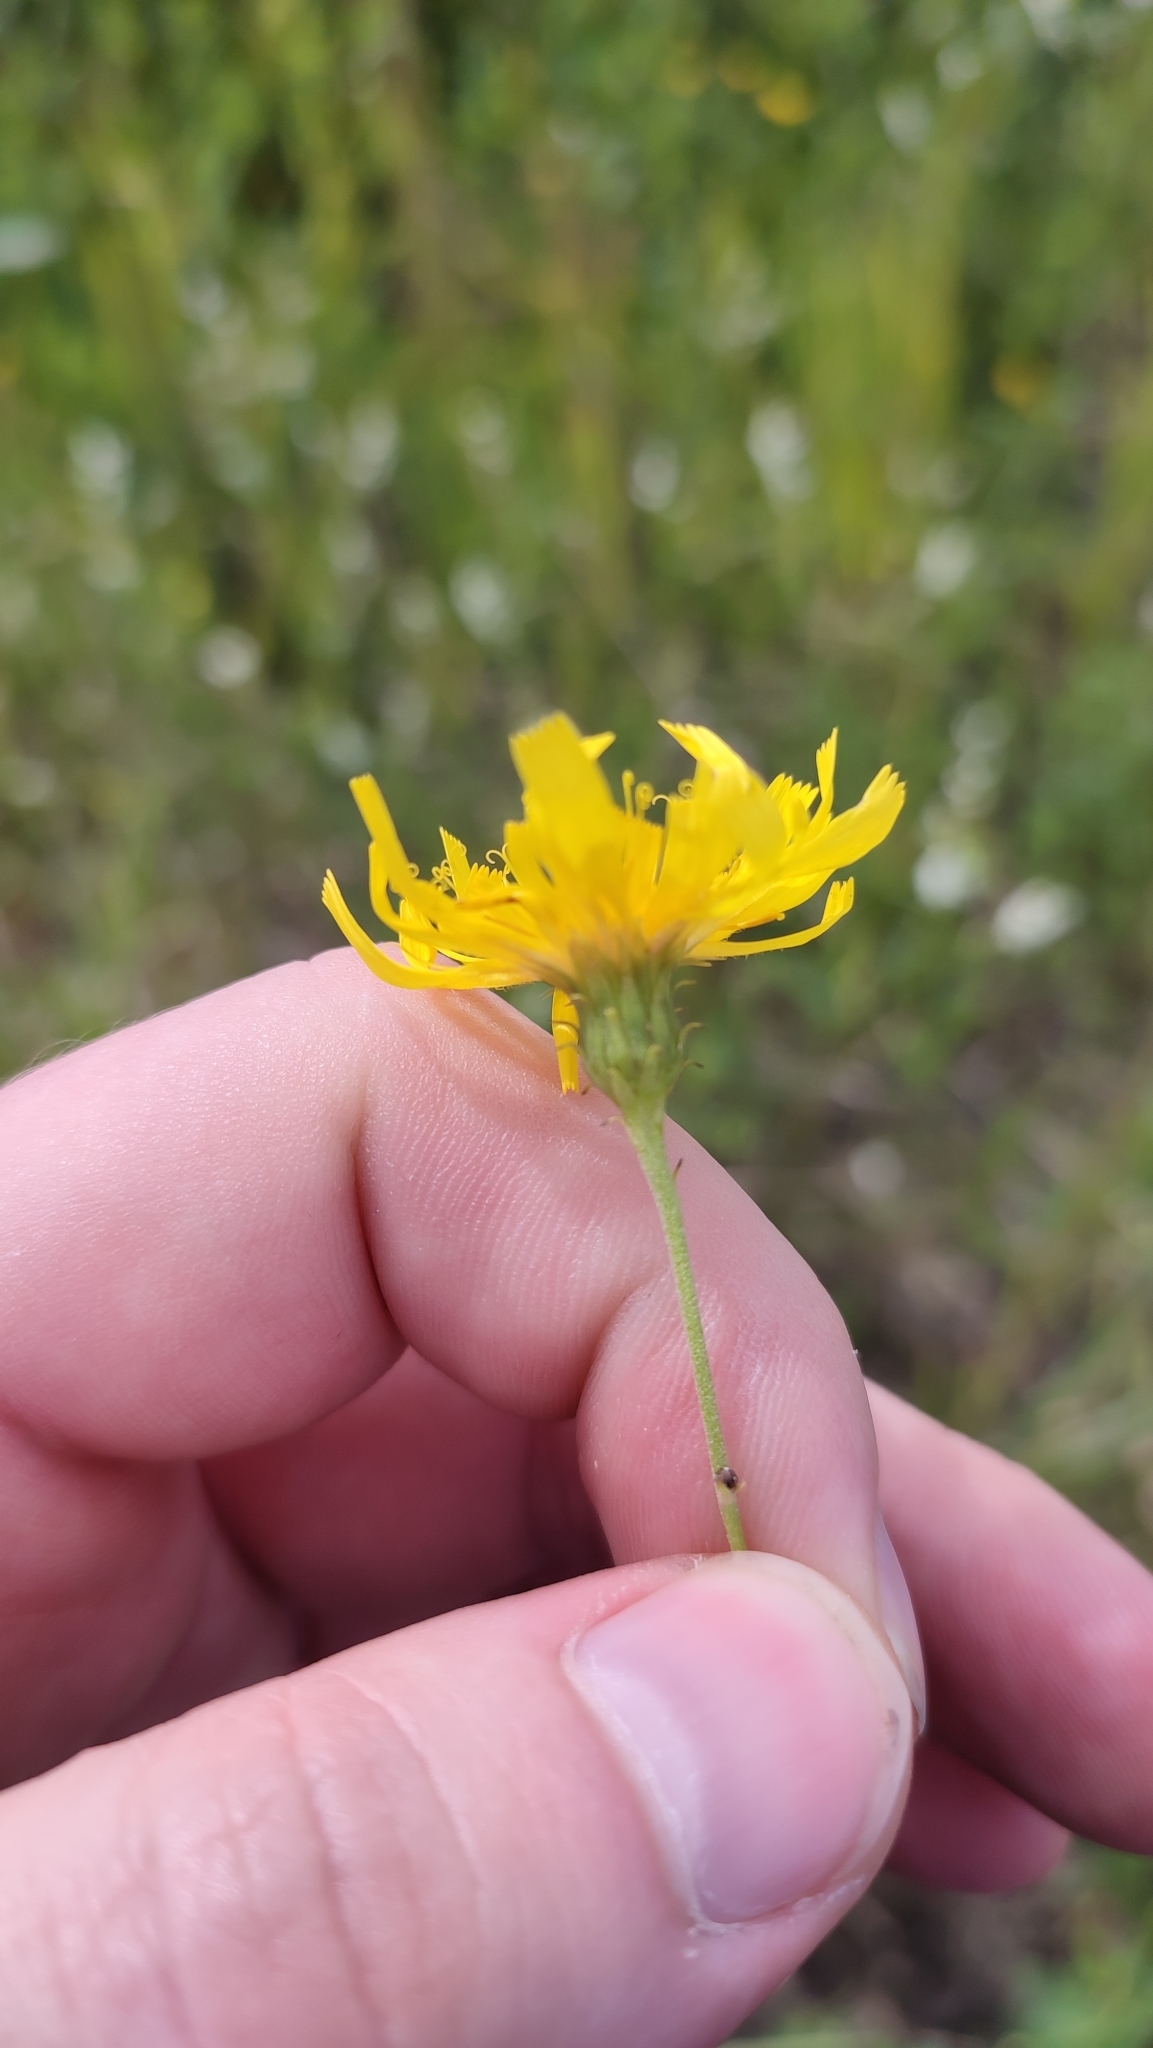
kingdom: Plantae
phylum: Tracheophyta
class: Magnoliopsida
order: Asterales
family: Asteraceae
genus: Hieracium
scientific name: Hieracium umbellatum
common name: Northern hawkweed
